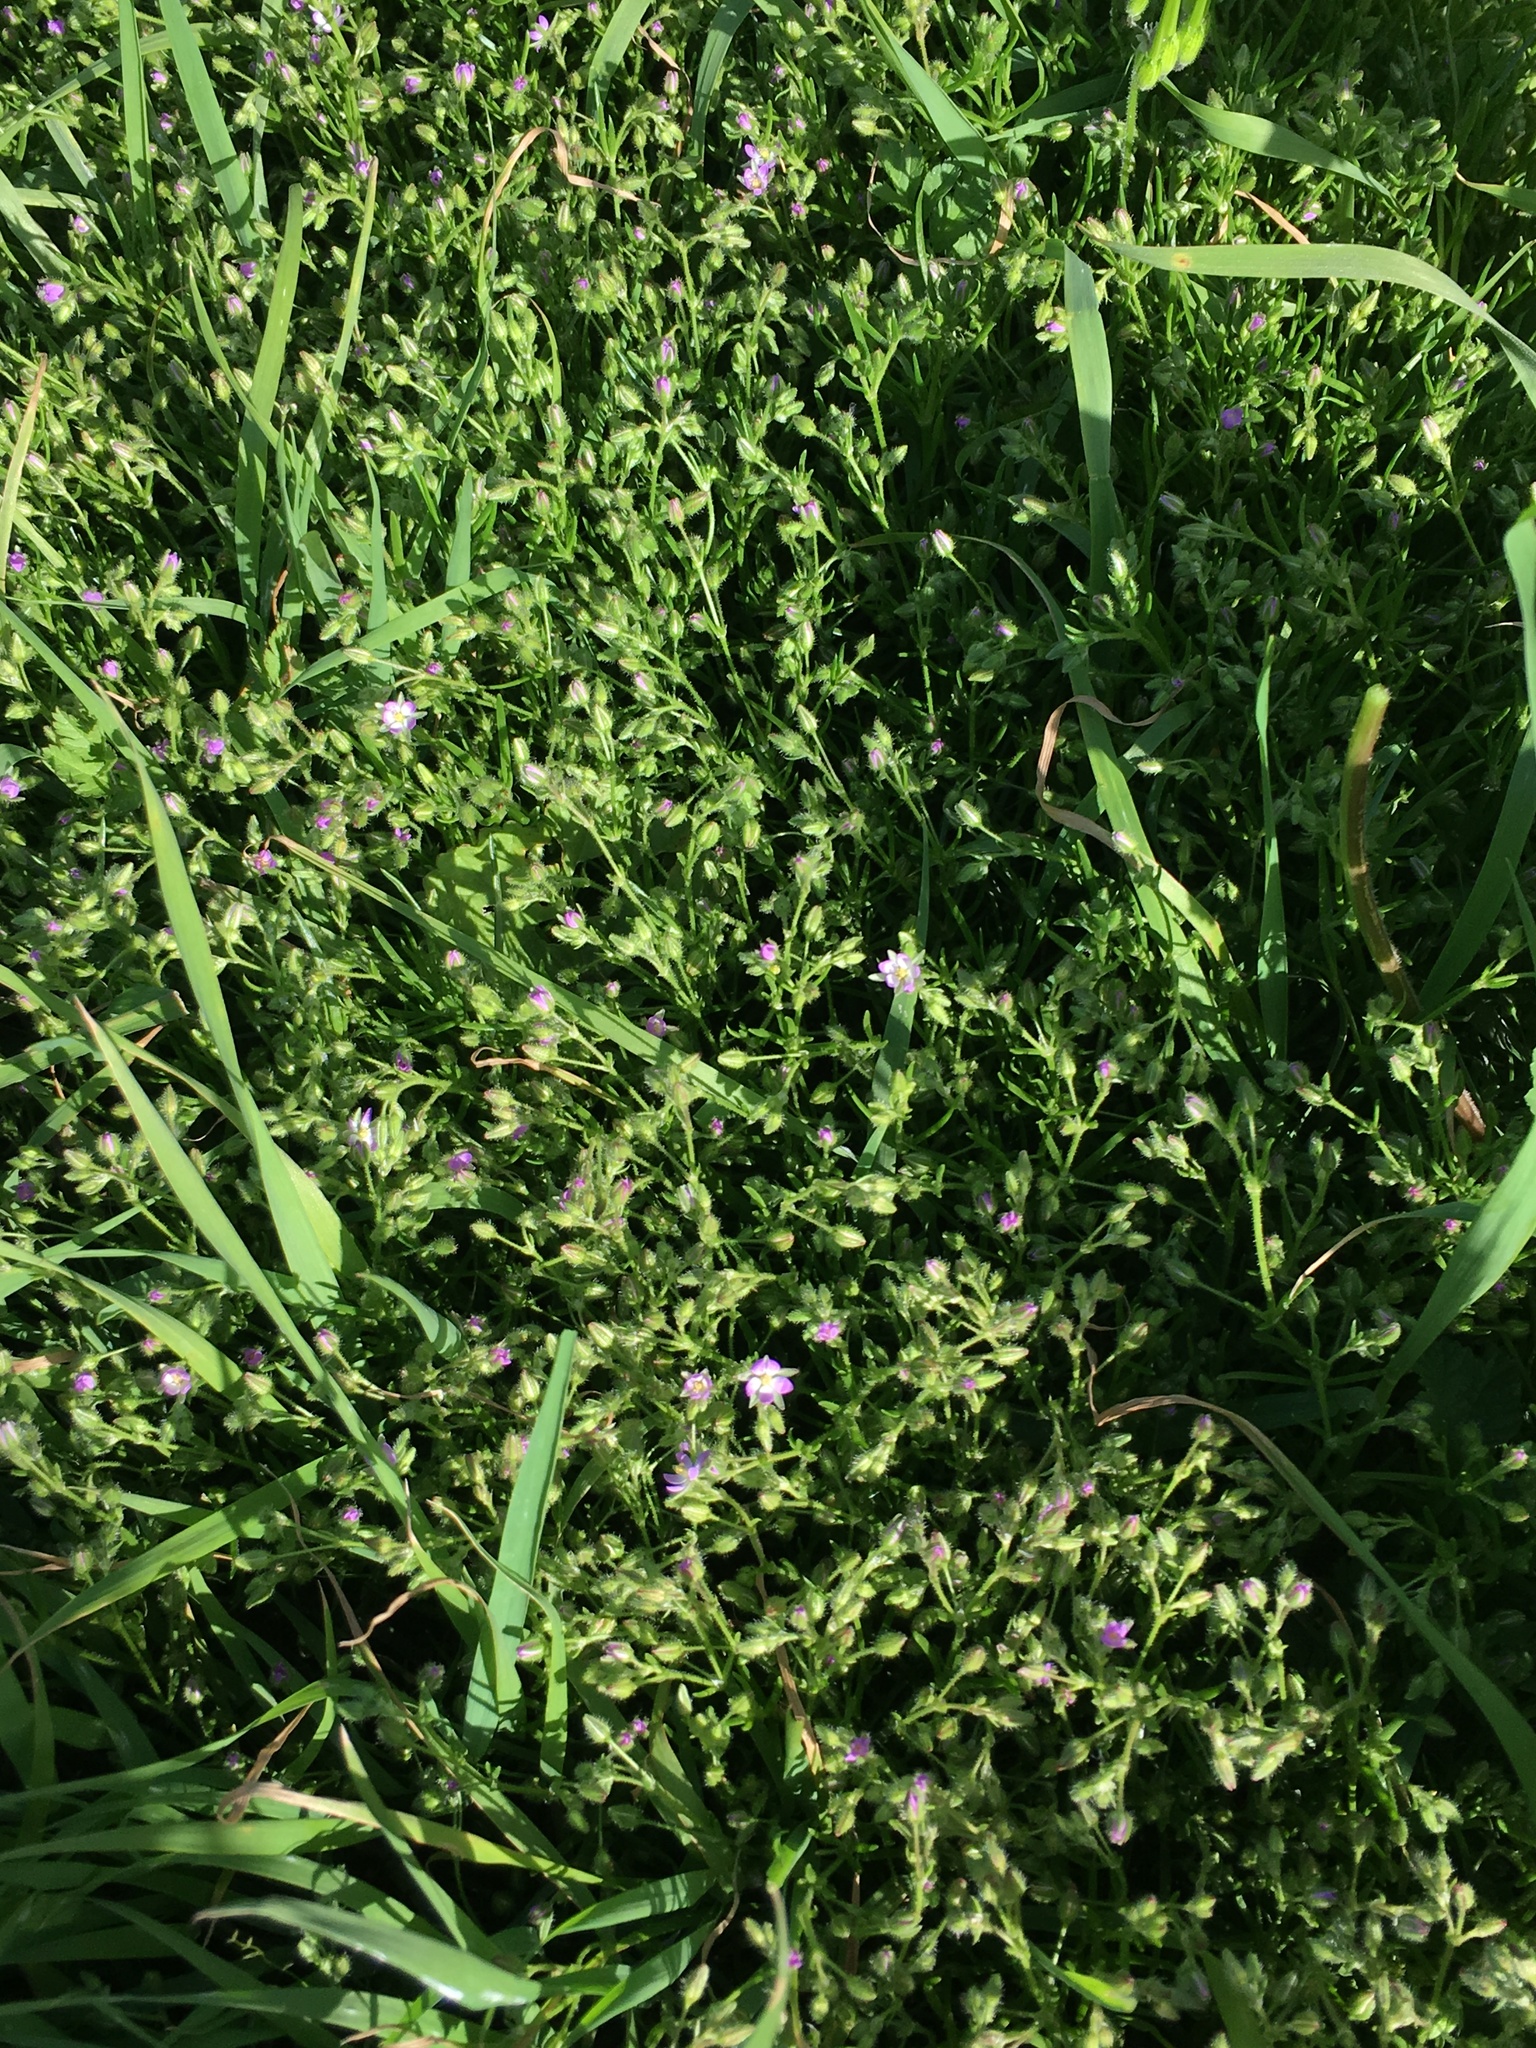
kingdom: Plantae
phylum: Tracheophyta
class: Magnoliopsida
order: Caryophyllales
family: Caryophyllaceae
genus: Spergularia
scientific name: Spergularia bocconei
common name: Greek sea-spurrey
